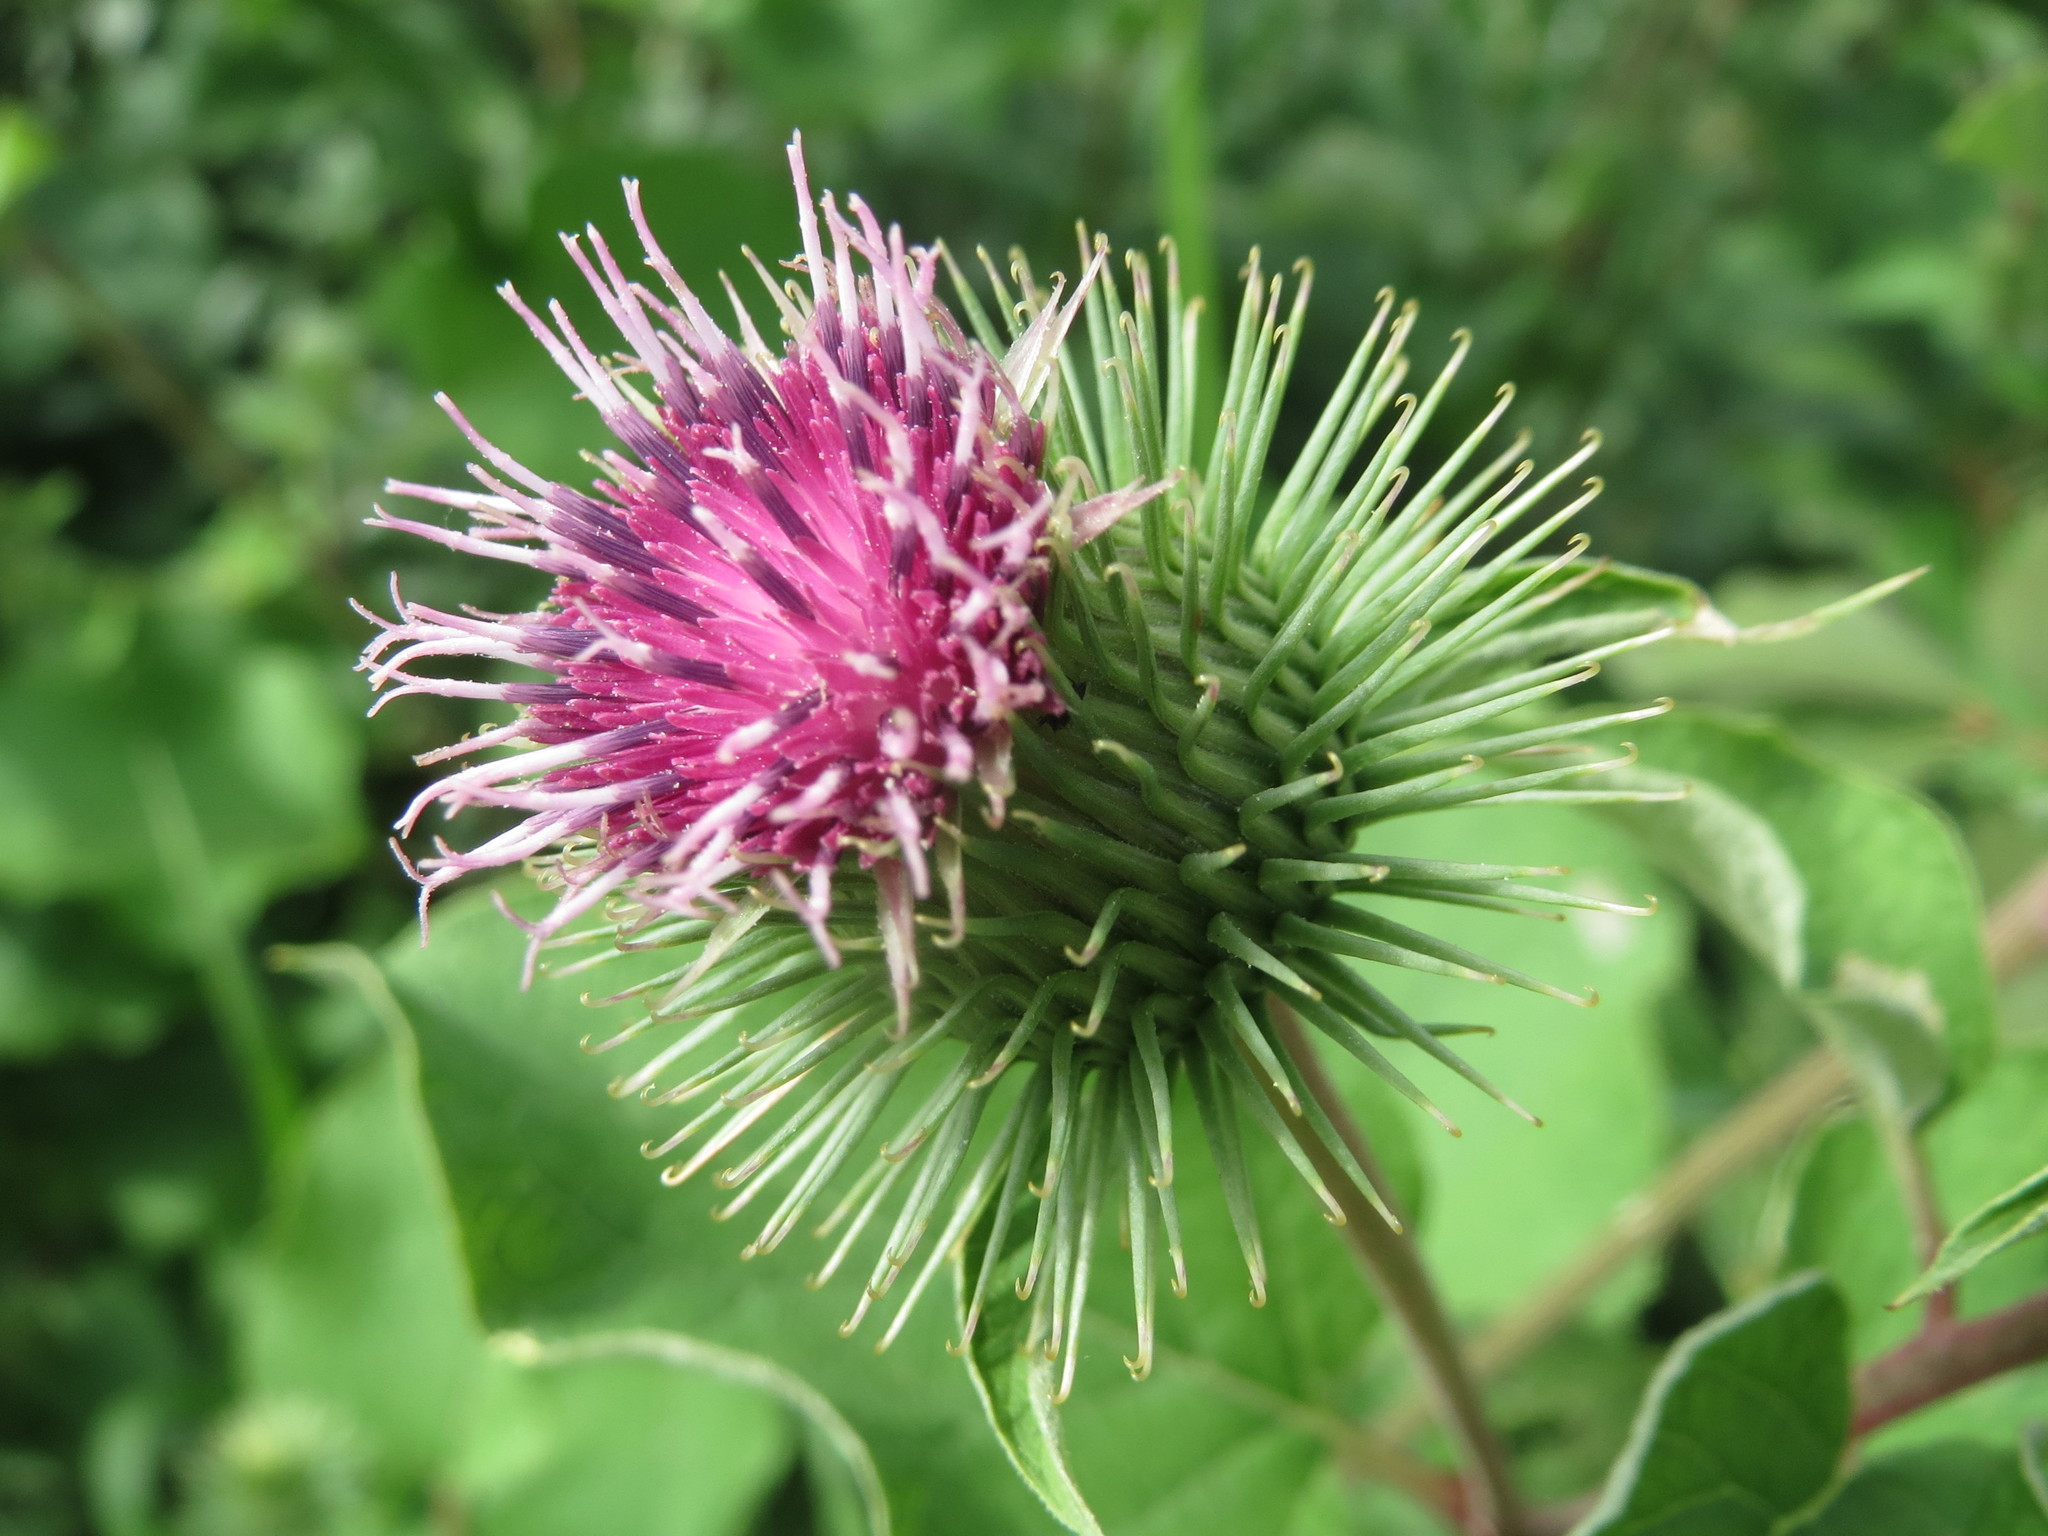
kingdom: Plantae
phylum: Tracheophyta
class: Magnoliopsida
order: Asterales
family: Asteraceae
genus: Arctium
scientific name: Arctium lappa
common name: Greater burdock
